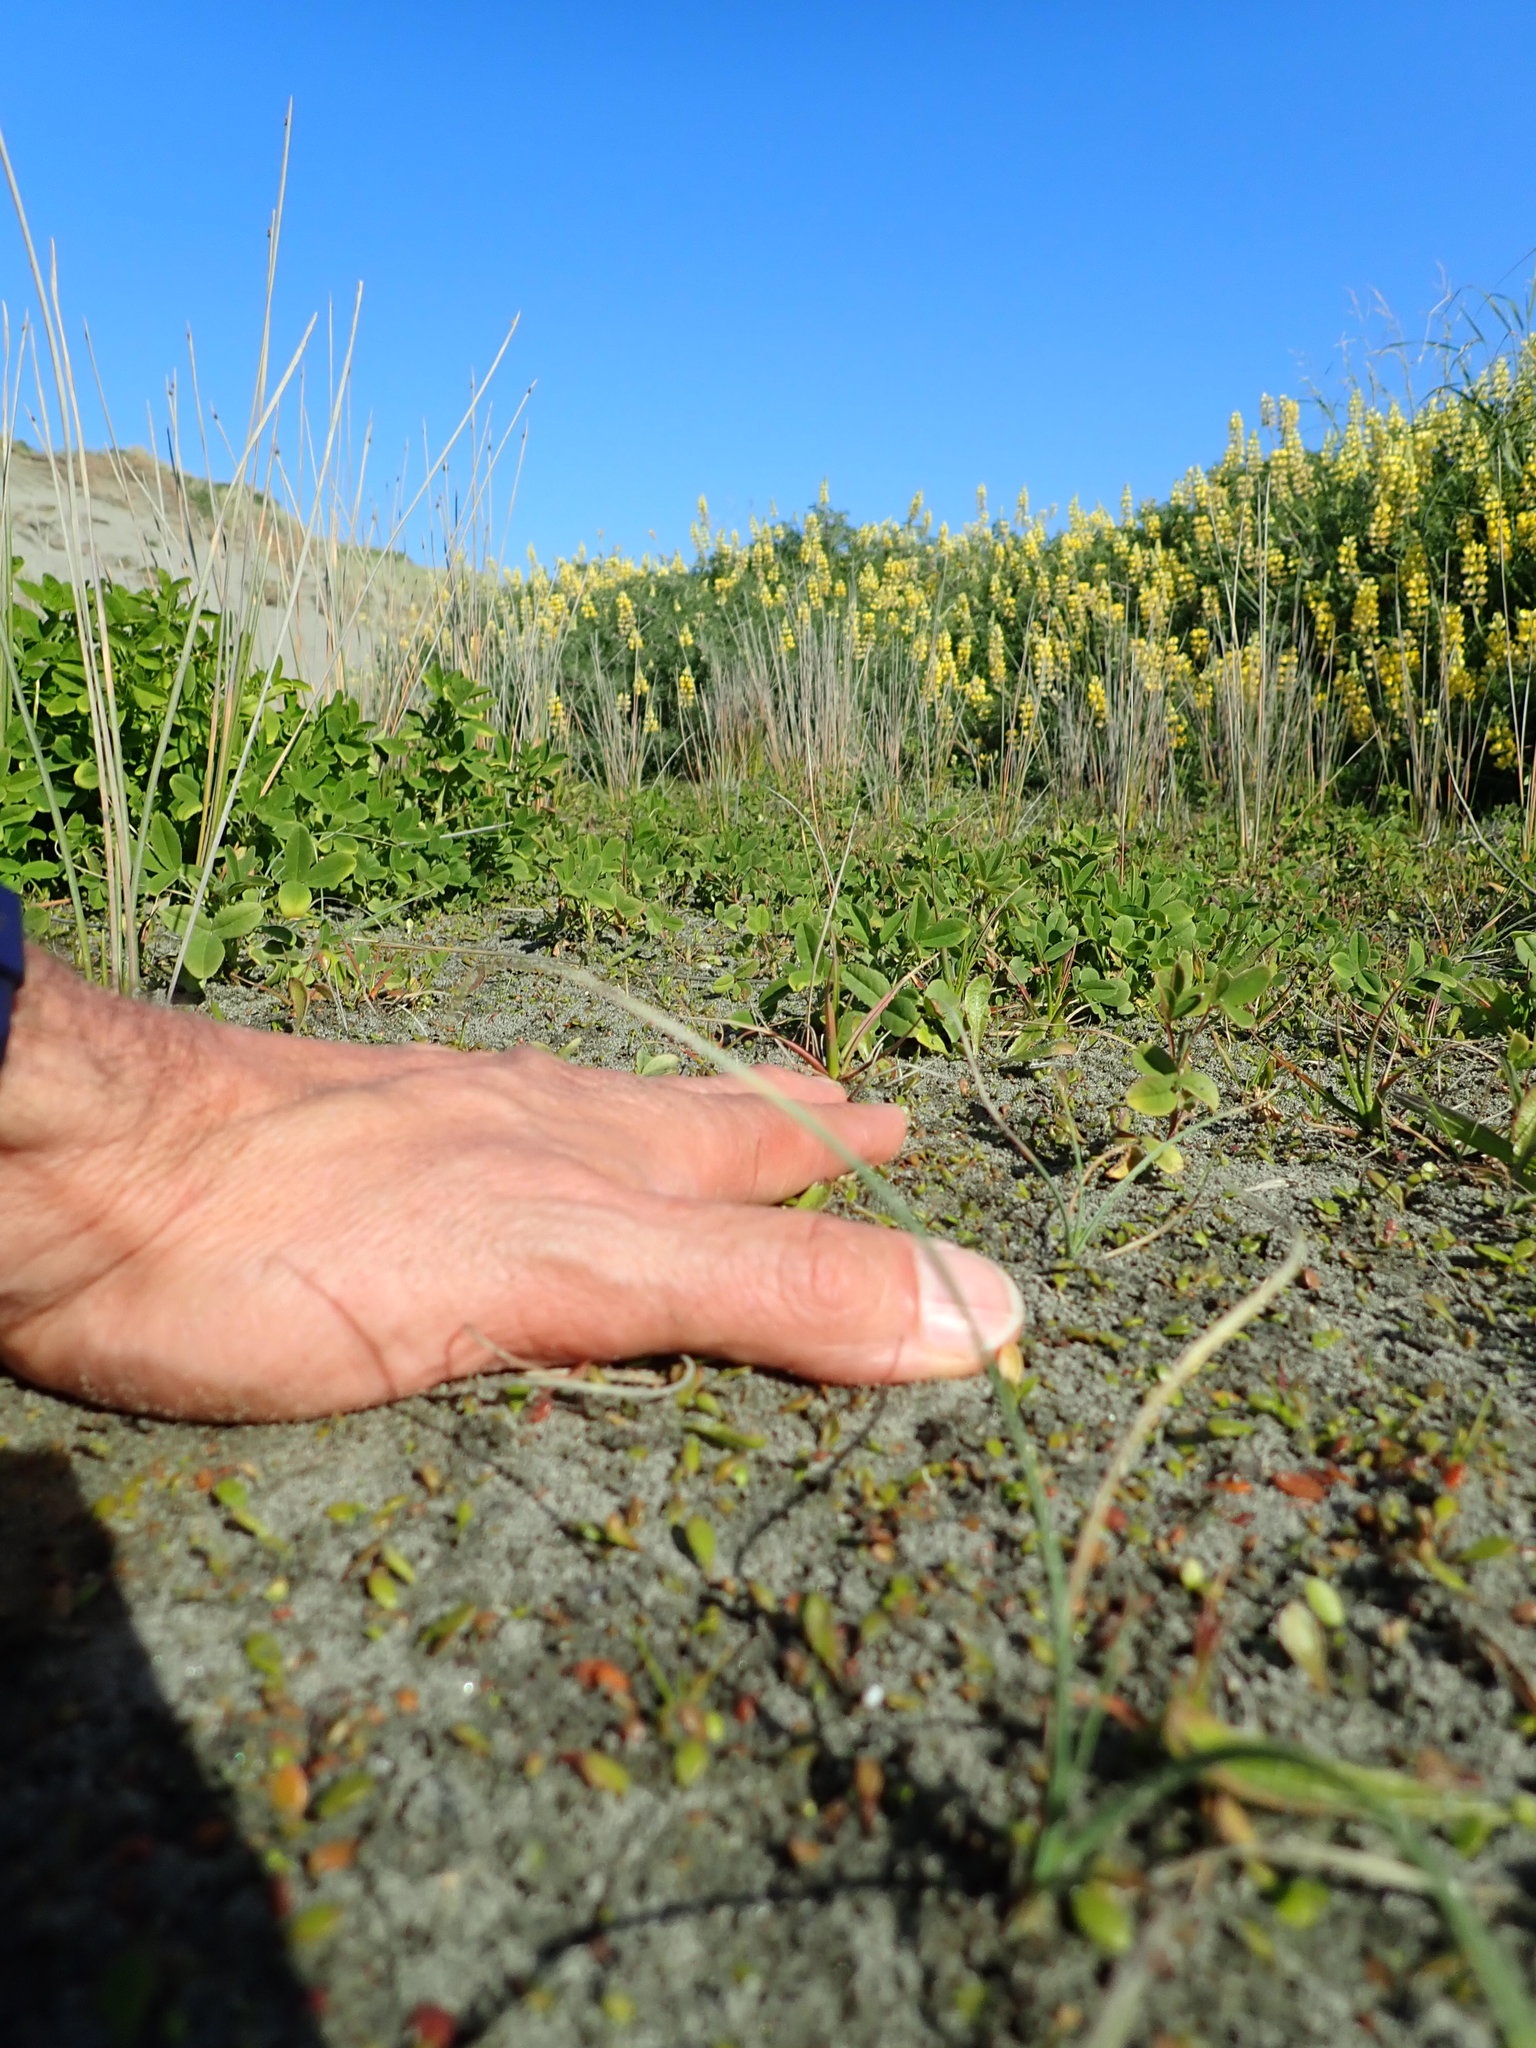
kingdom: Plantae
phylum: Tracheophyta
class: Liliopsida
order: Poales
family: Juncaceae
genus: Juncus
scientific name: Juncus caespiticius
